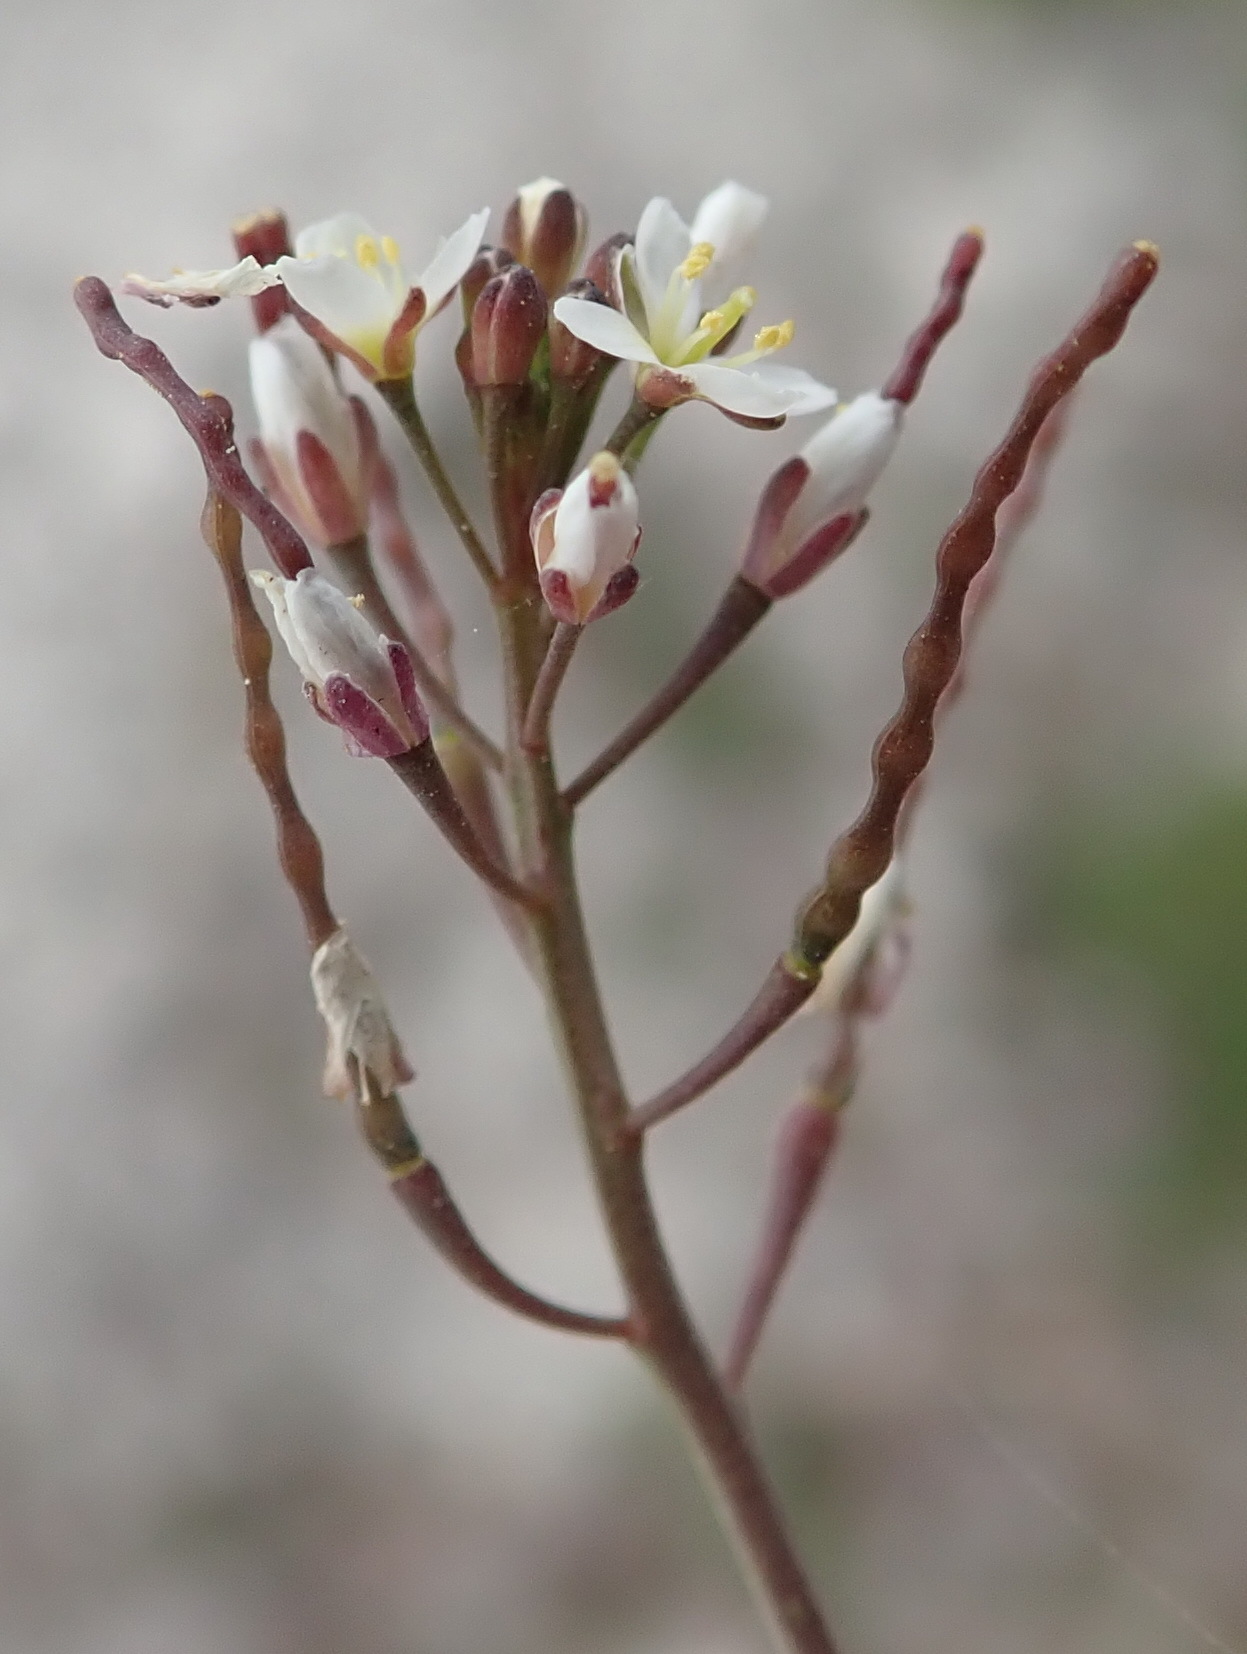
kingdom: Plantae
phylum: Tracheophyta
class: Magnoliopsida
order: Brassicales
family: Brassicaceae
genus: Heliophila
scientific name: Heliophila pusilla
